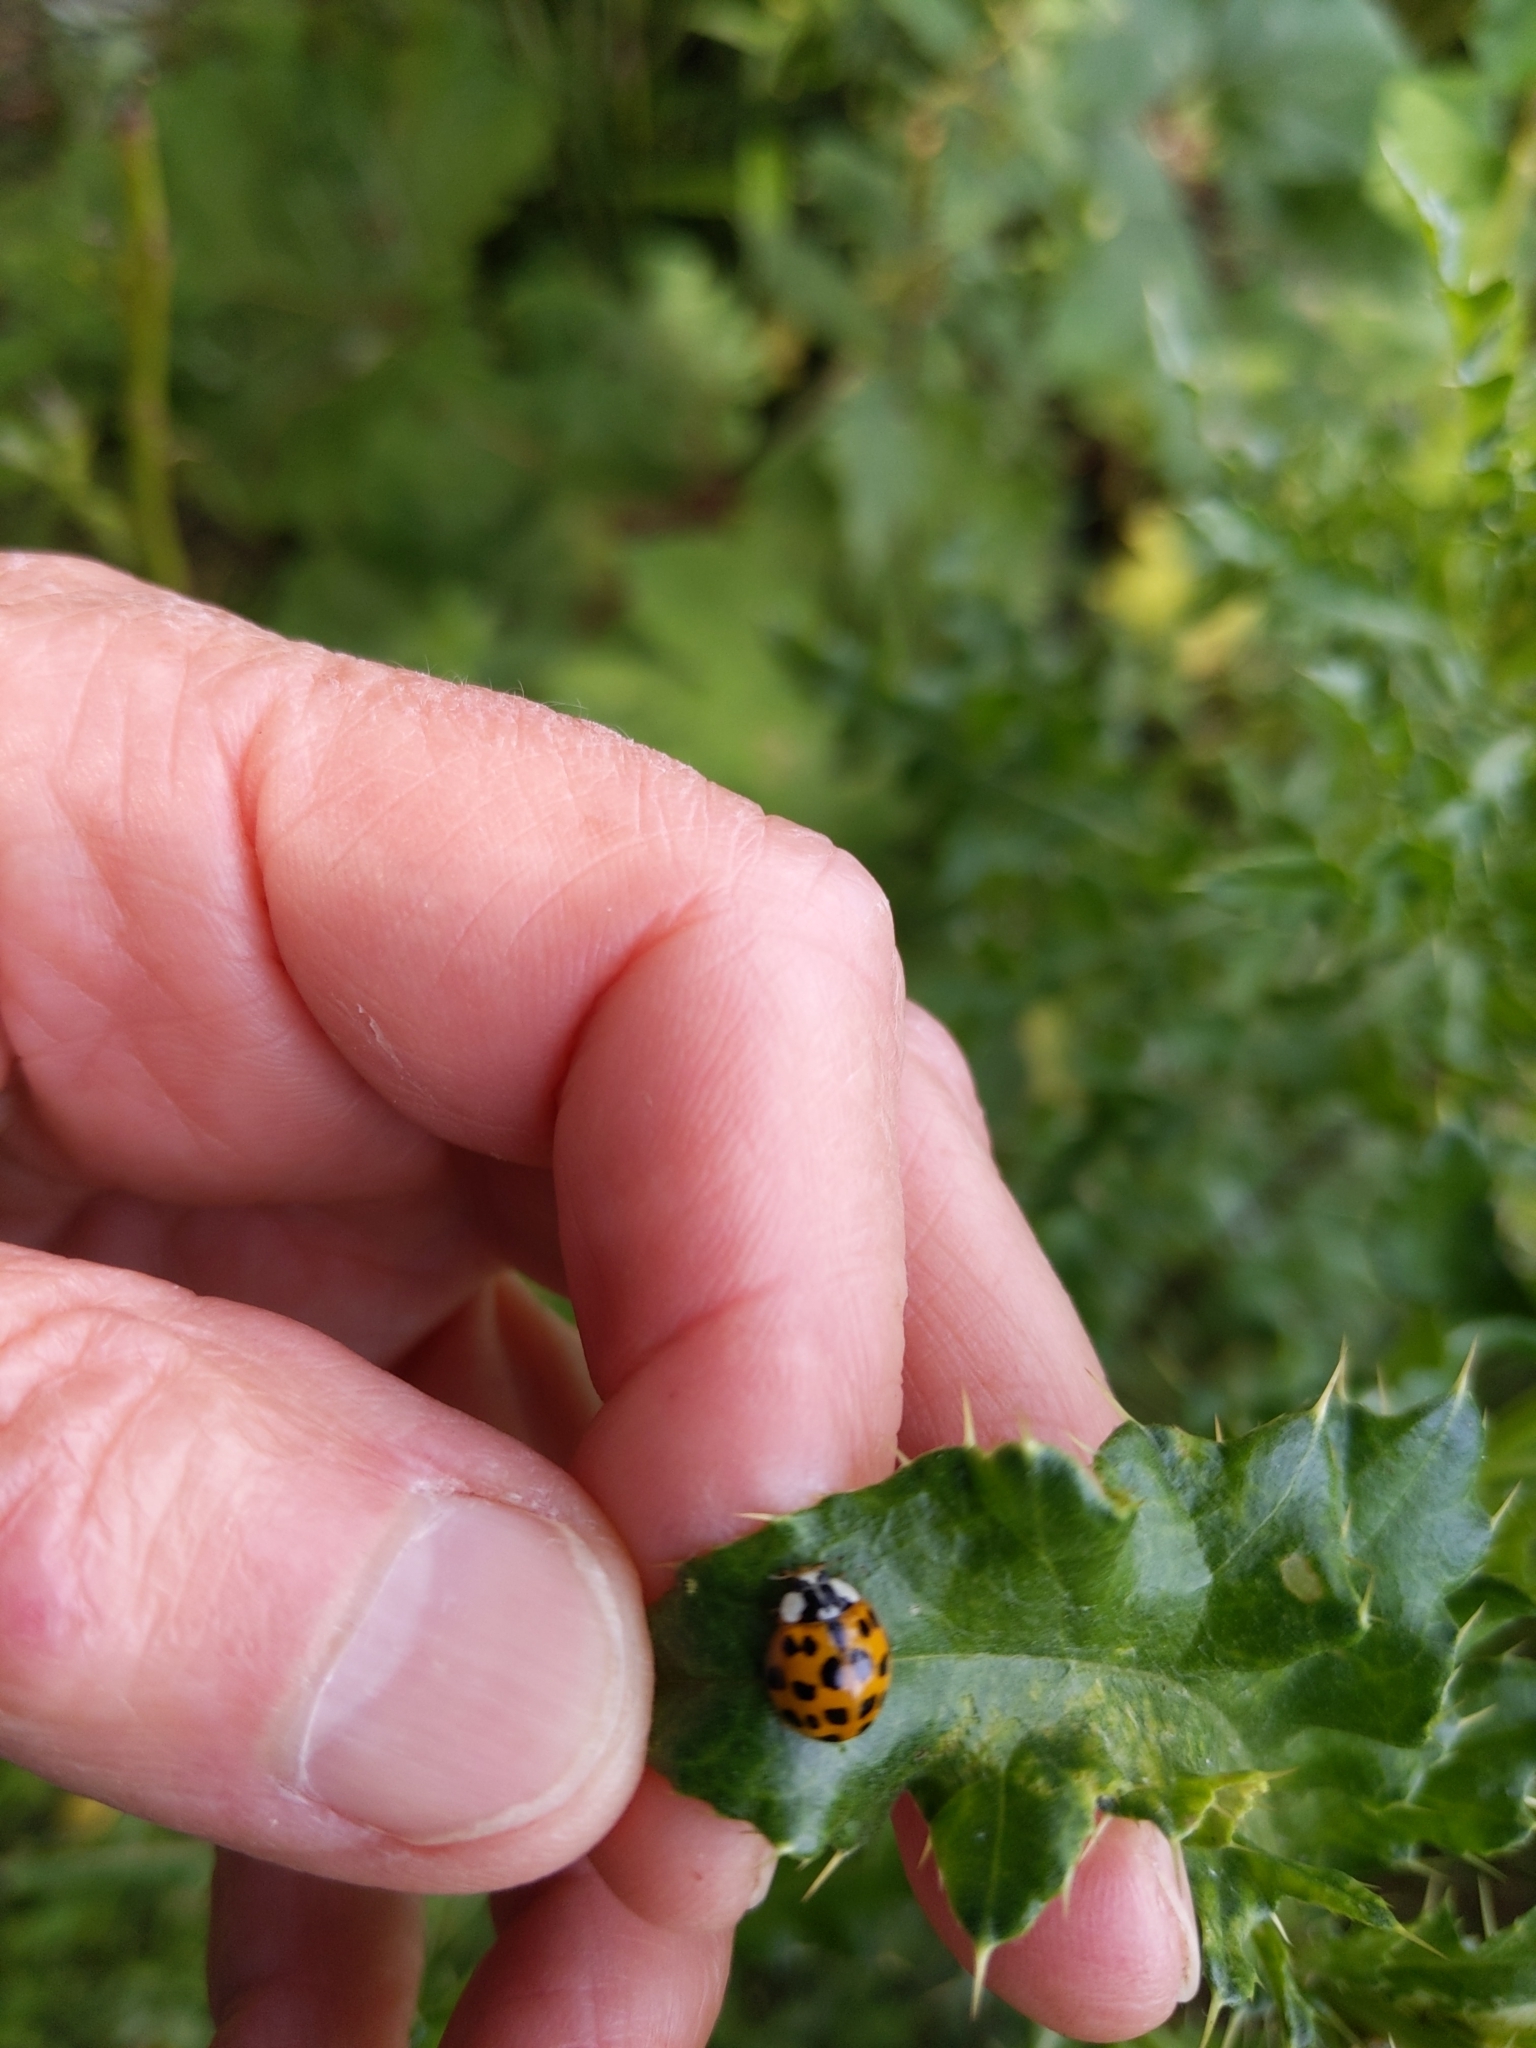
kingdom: Animalia
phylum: Arthropoda
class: Insecta
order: Coleoptera
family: Coccinellidae
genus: Harmonia
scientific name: Harmonia axyridis
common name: Harlequin ladybird
